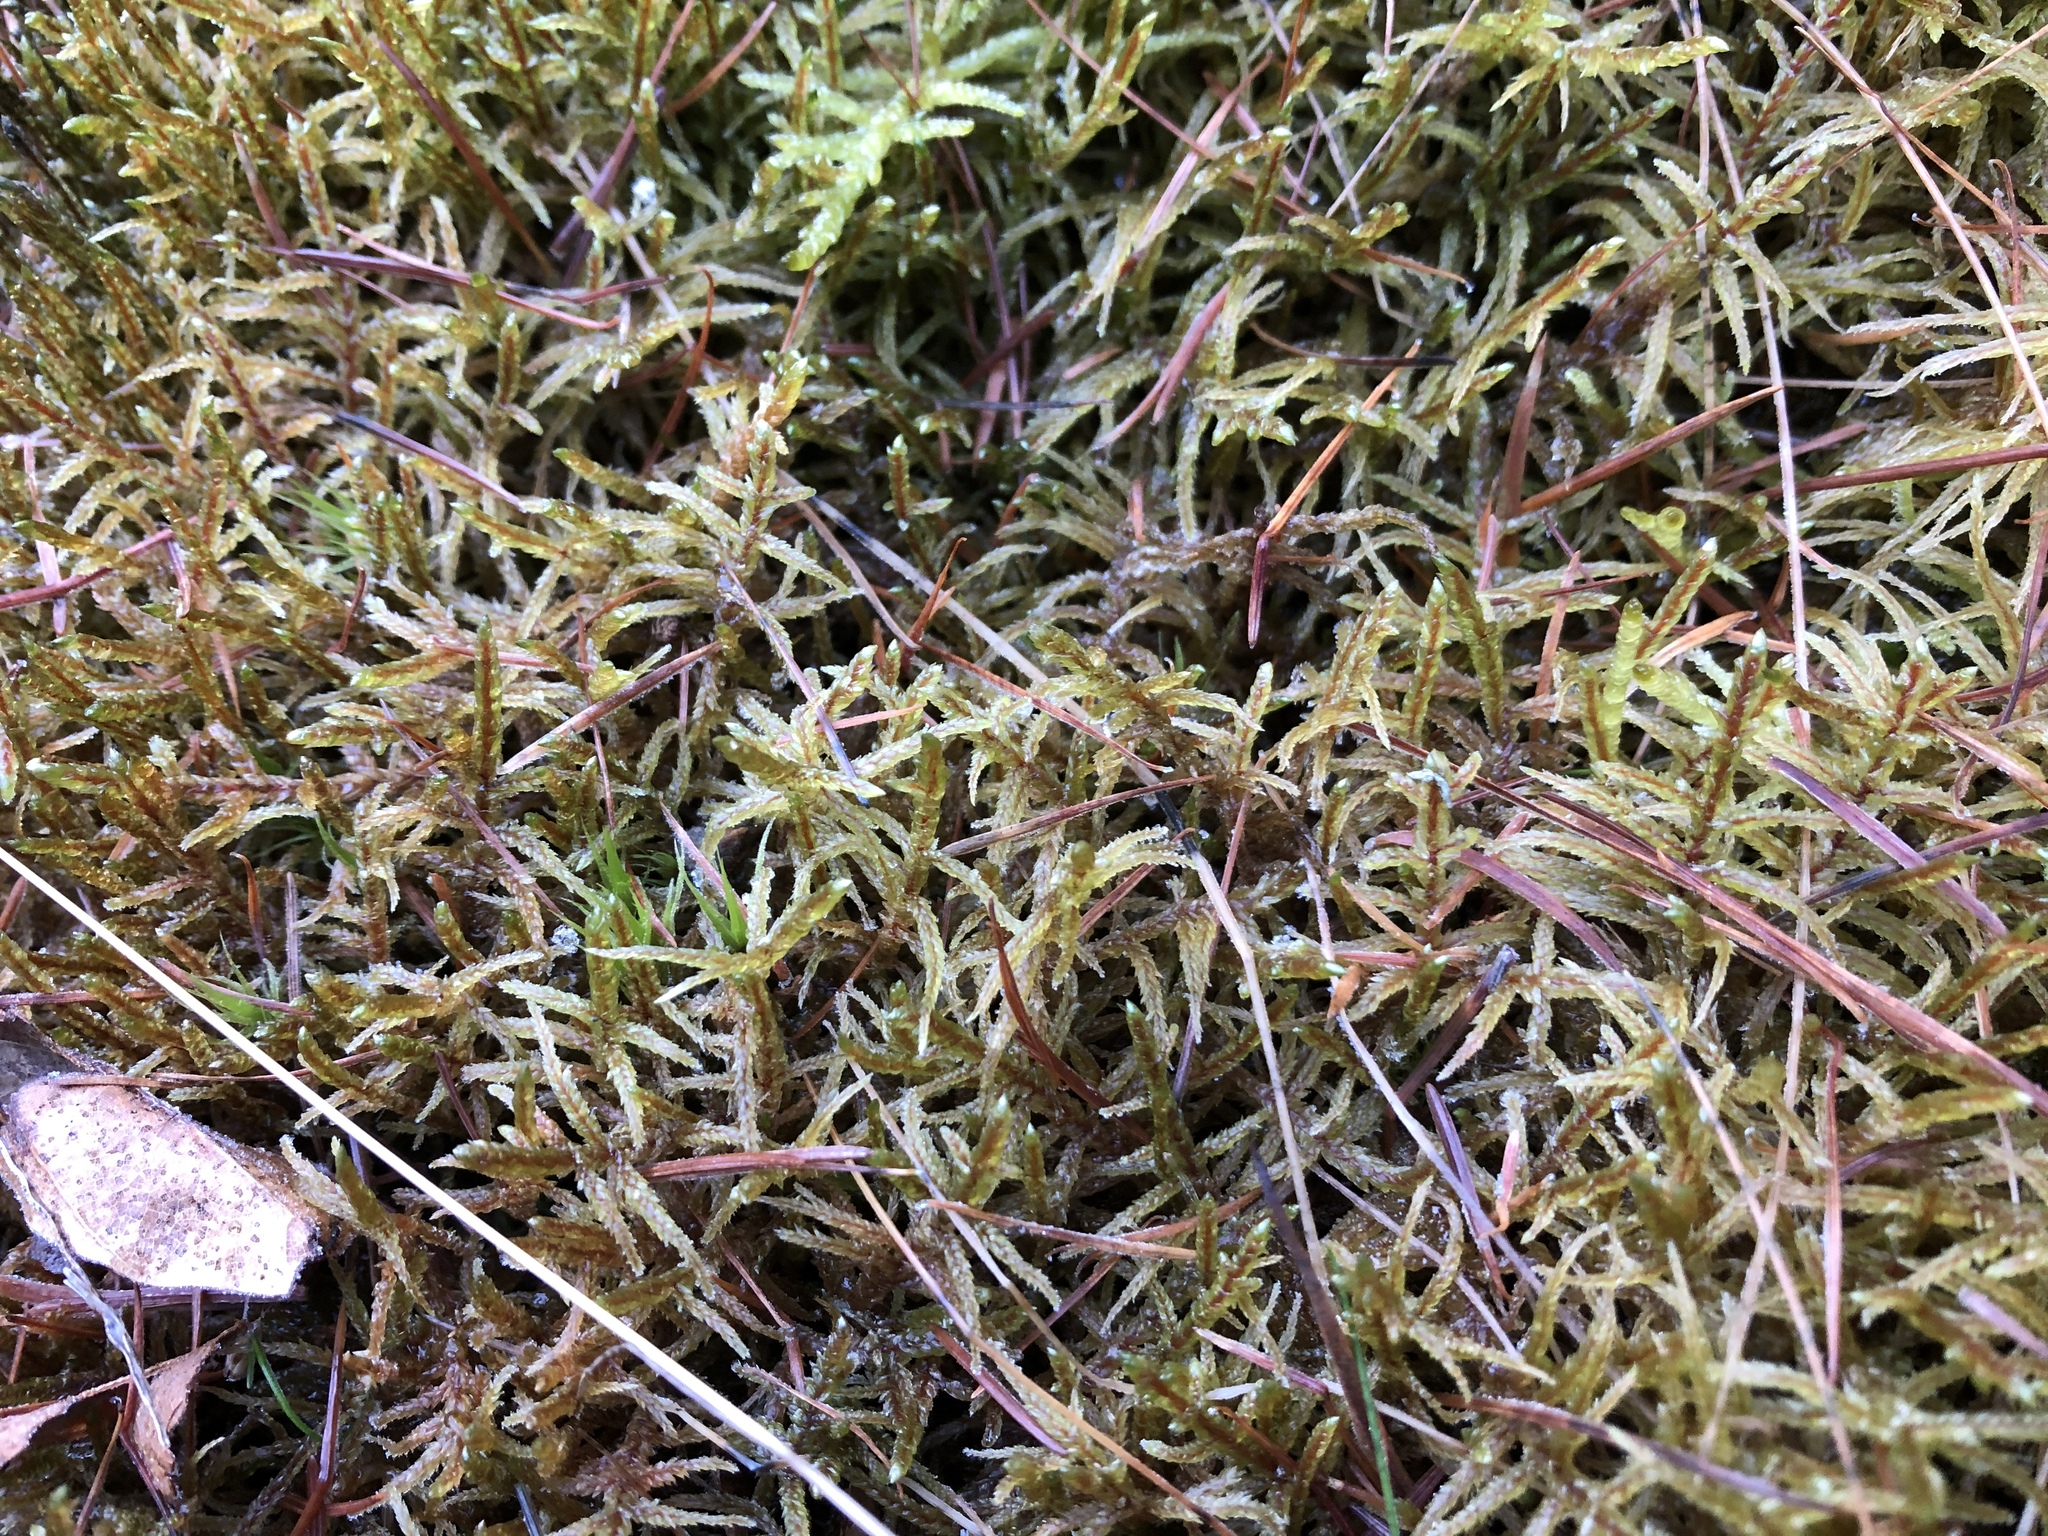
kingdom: Plantae
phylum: Bryophyta
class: Bryopsida
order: Hypnales
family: Hylocomiaceae
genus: Pleurozium
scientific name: Pleurozium schreberi
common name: Red-stemmed feather moss
